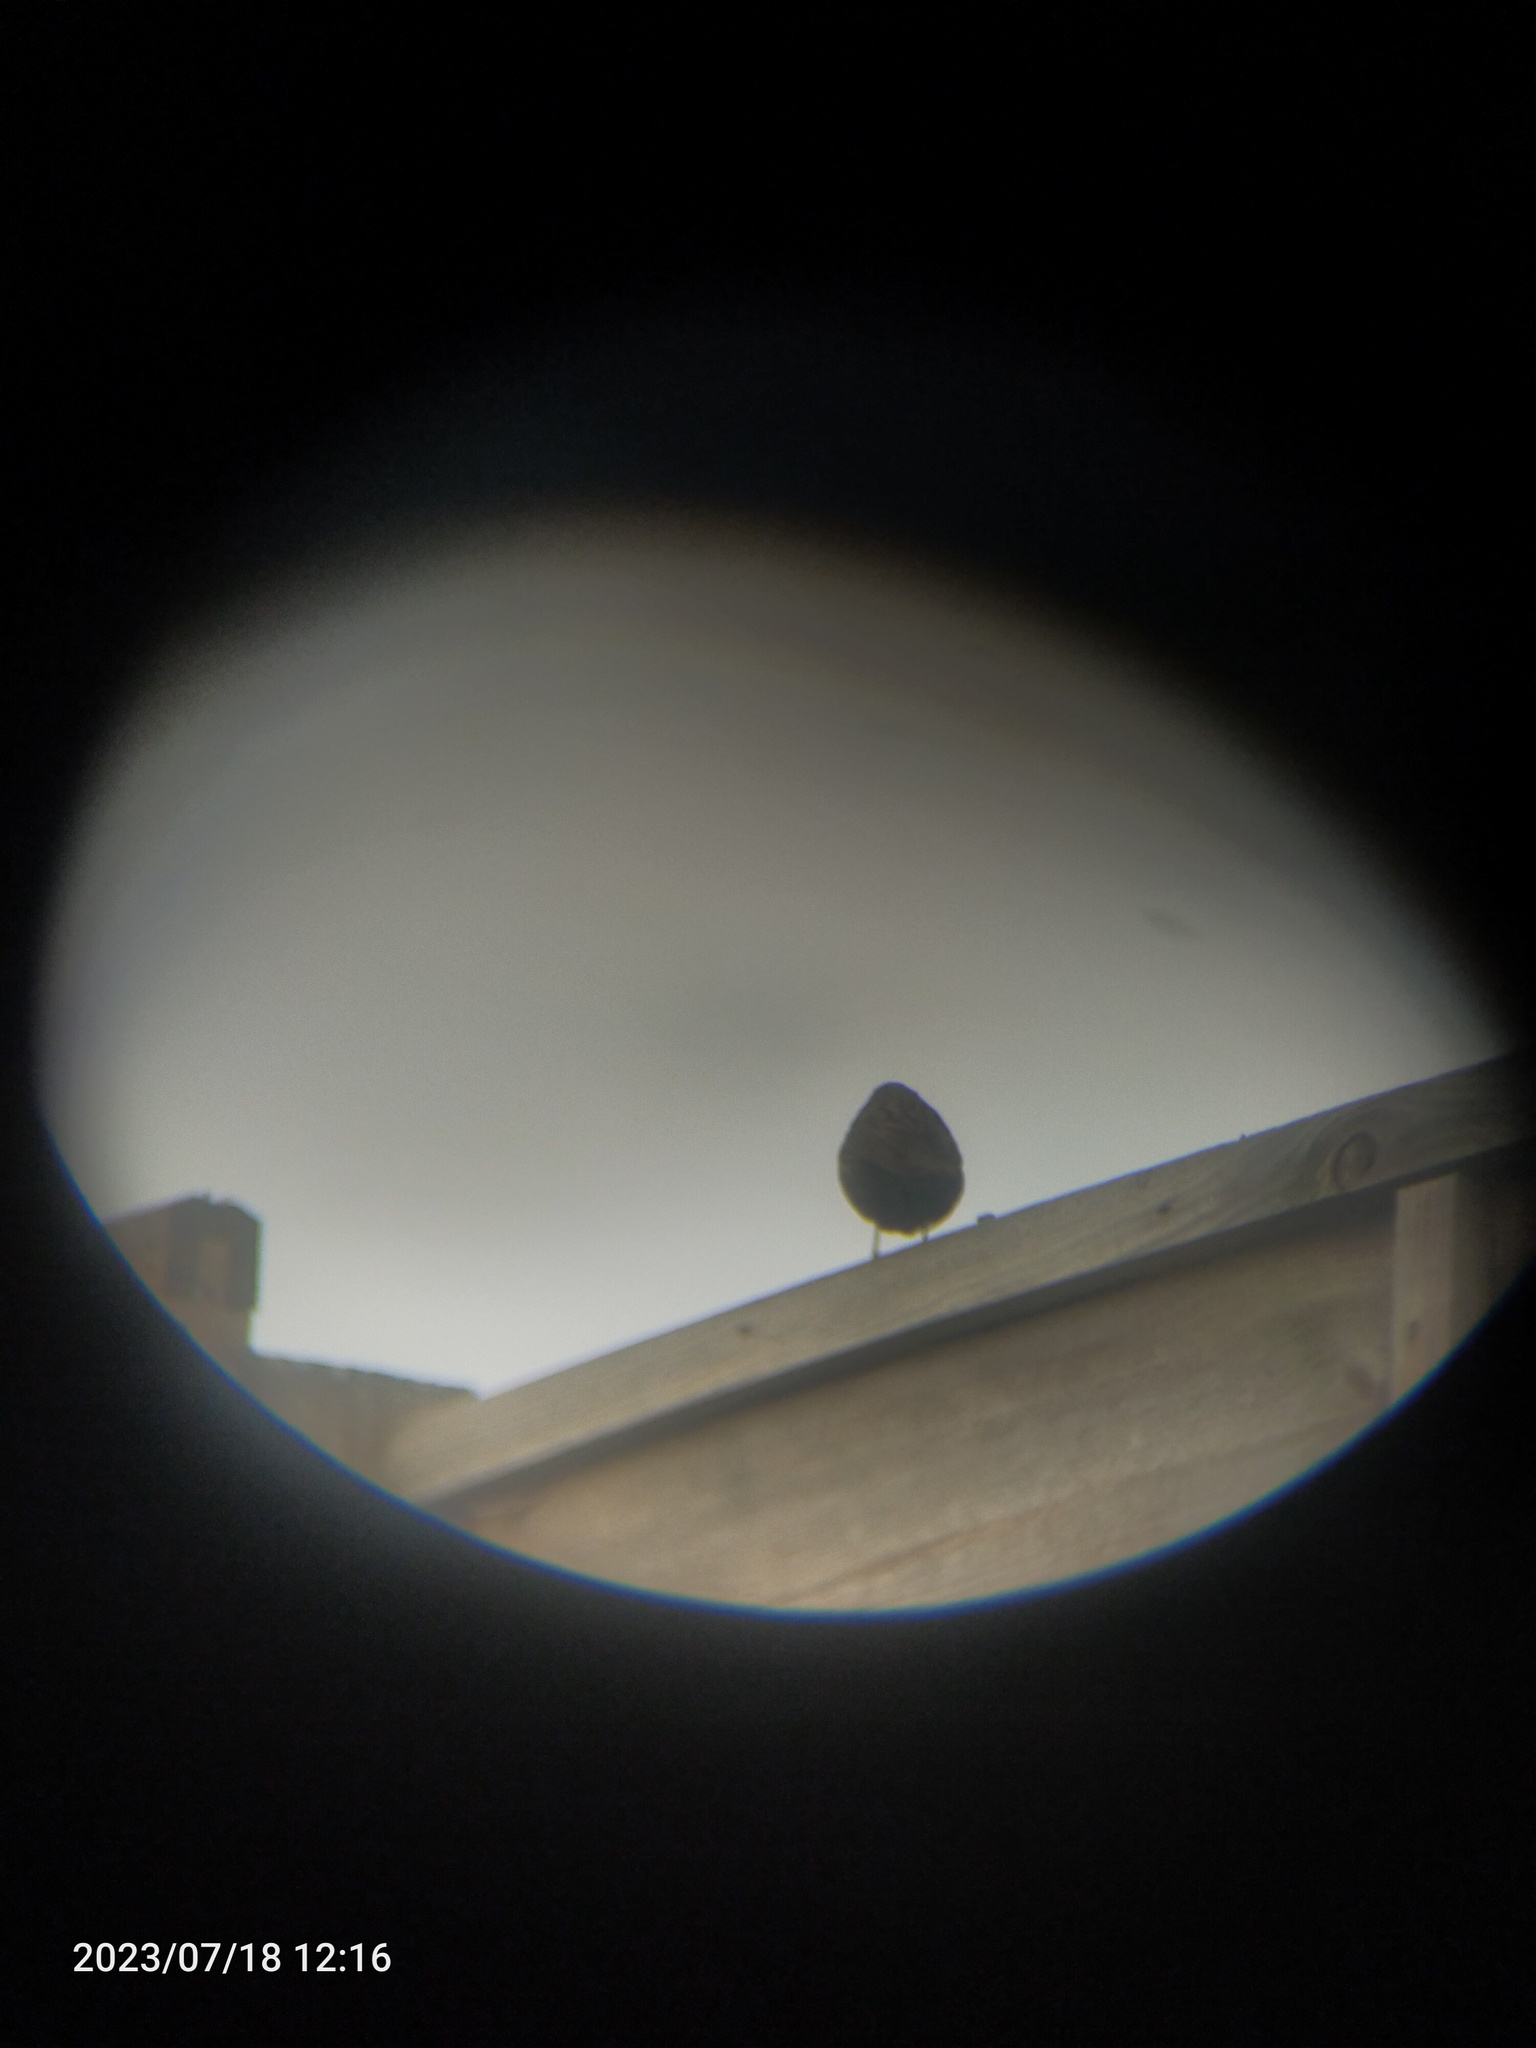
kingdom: Animalia
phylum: Chordata
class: Aves
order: Passeriformes
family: Prunellidae
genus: Prunella
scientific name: Prunella modularis
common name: Dunnock
